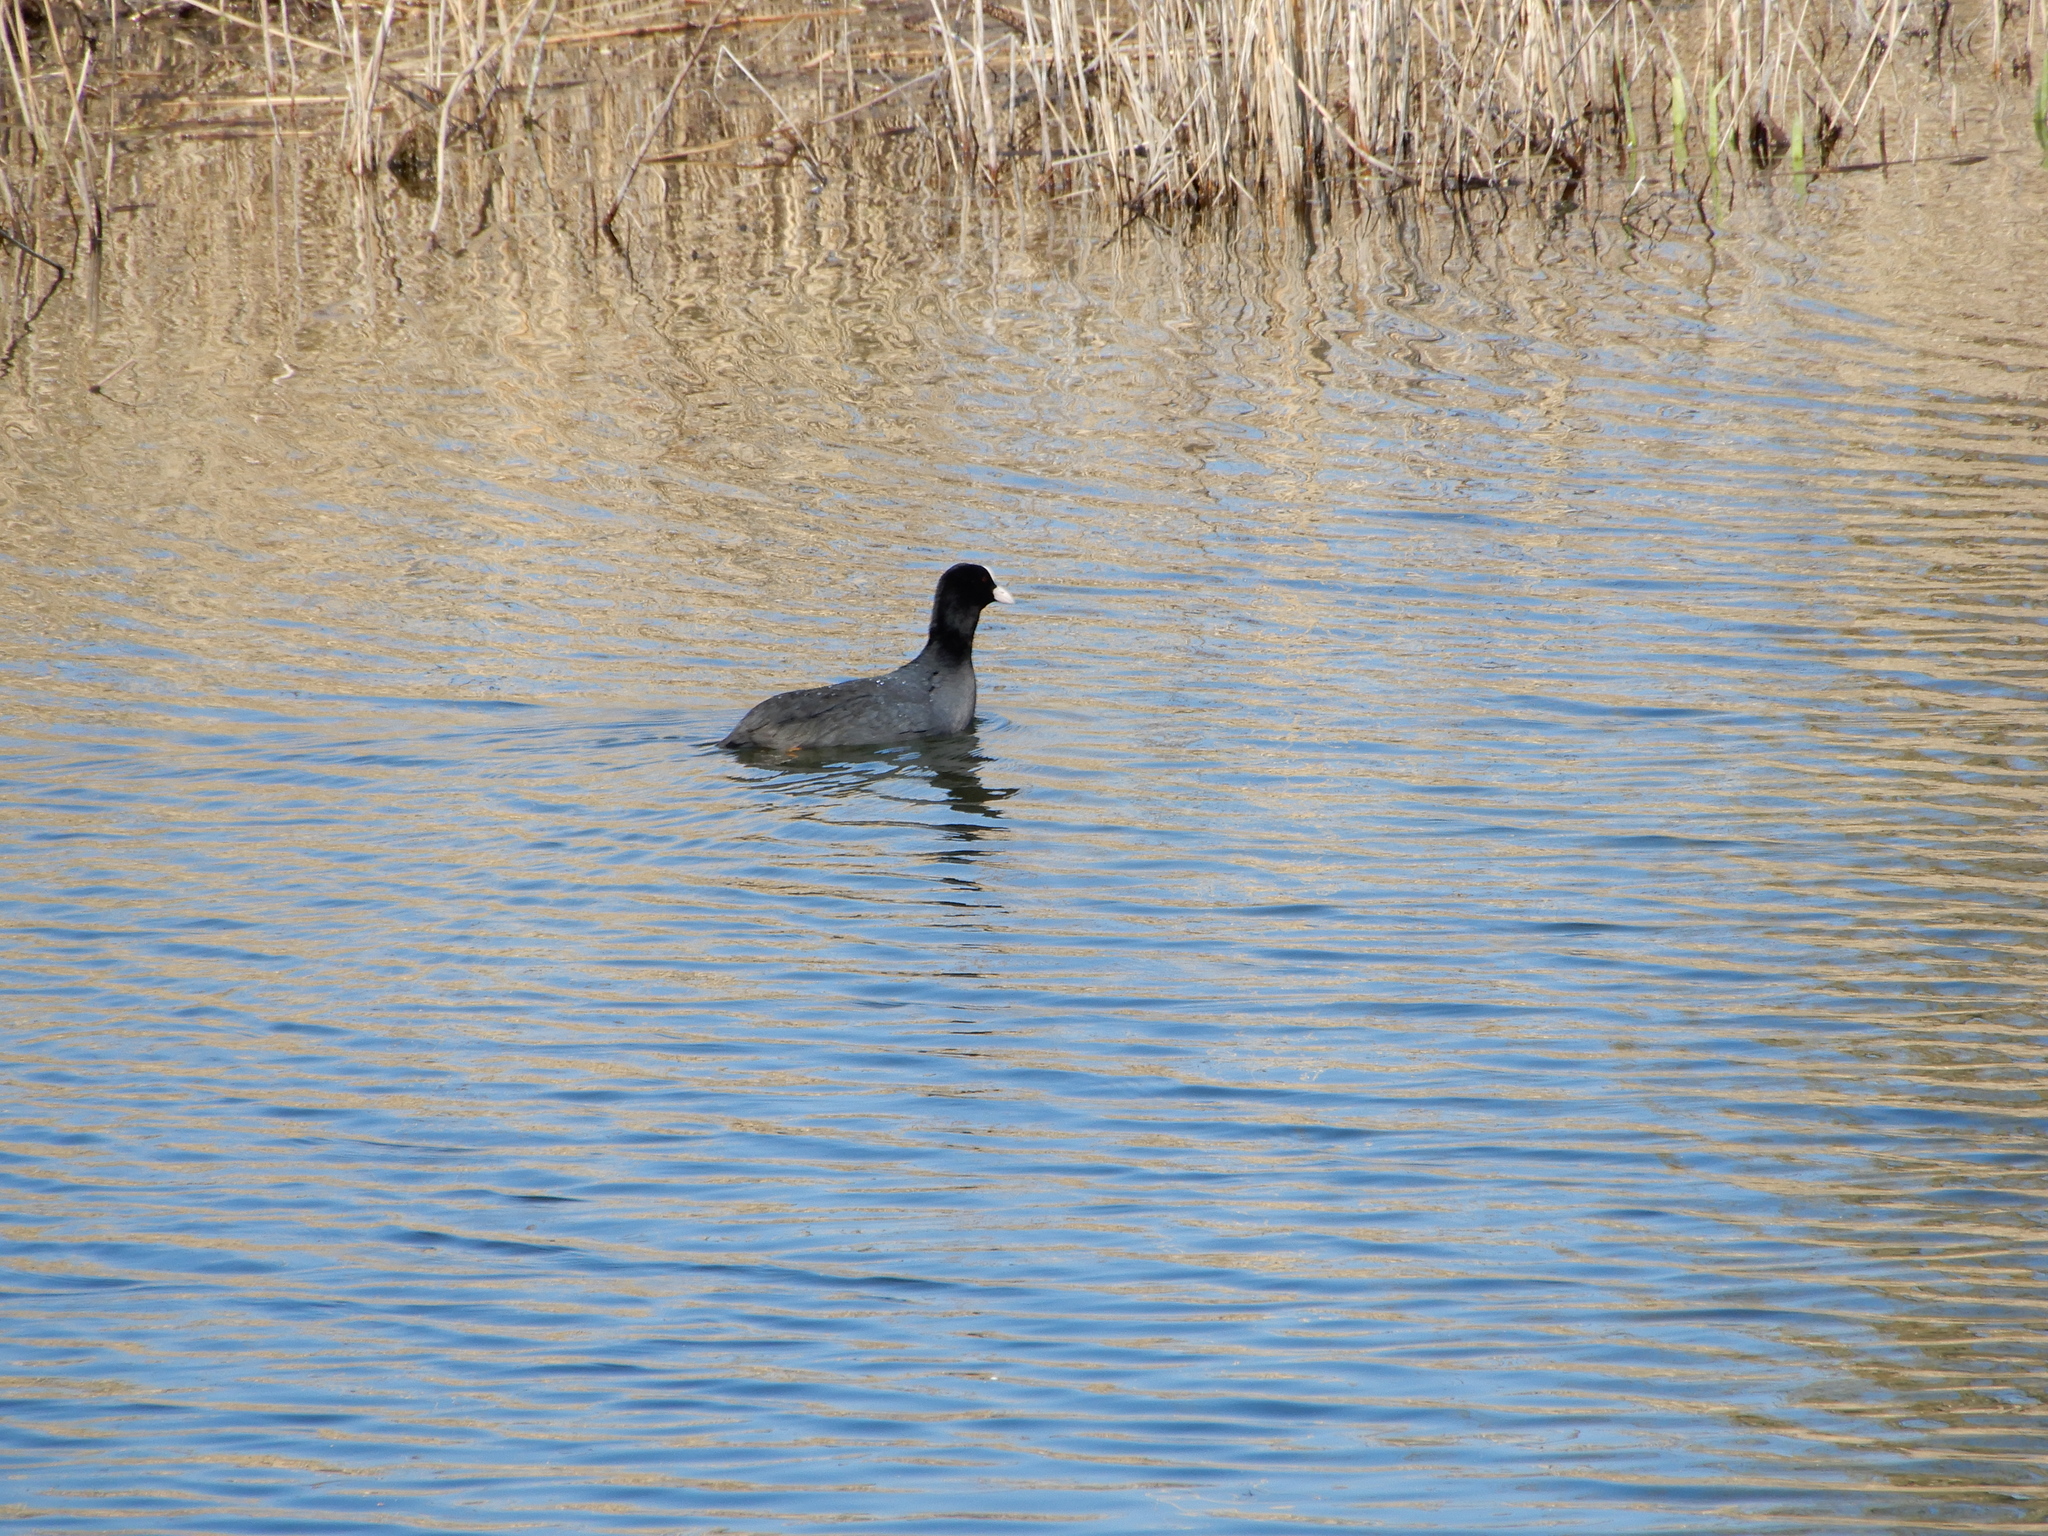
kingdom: Animalia
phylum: Chordata
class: Aves
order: Gruiformes
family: Rallidae
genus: Fulica
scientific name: Fulica atra
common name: Eurasian coot
